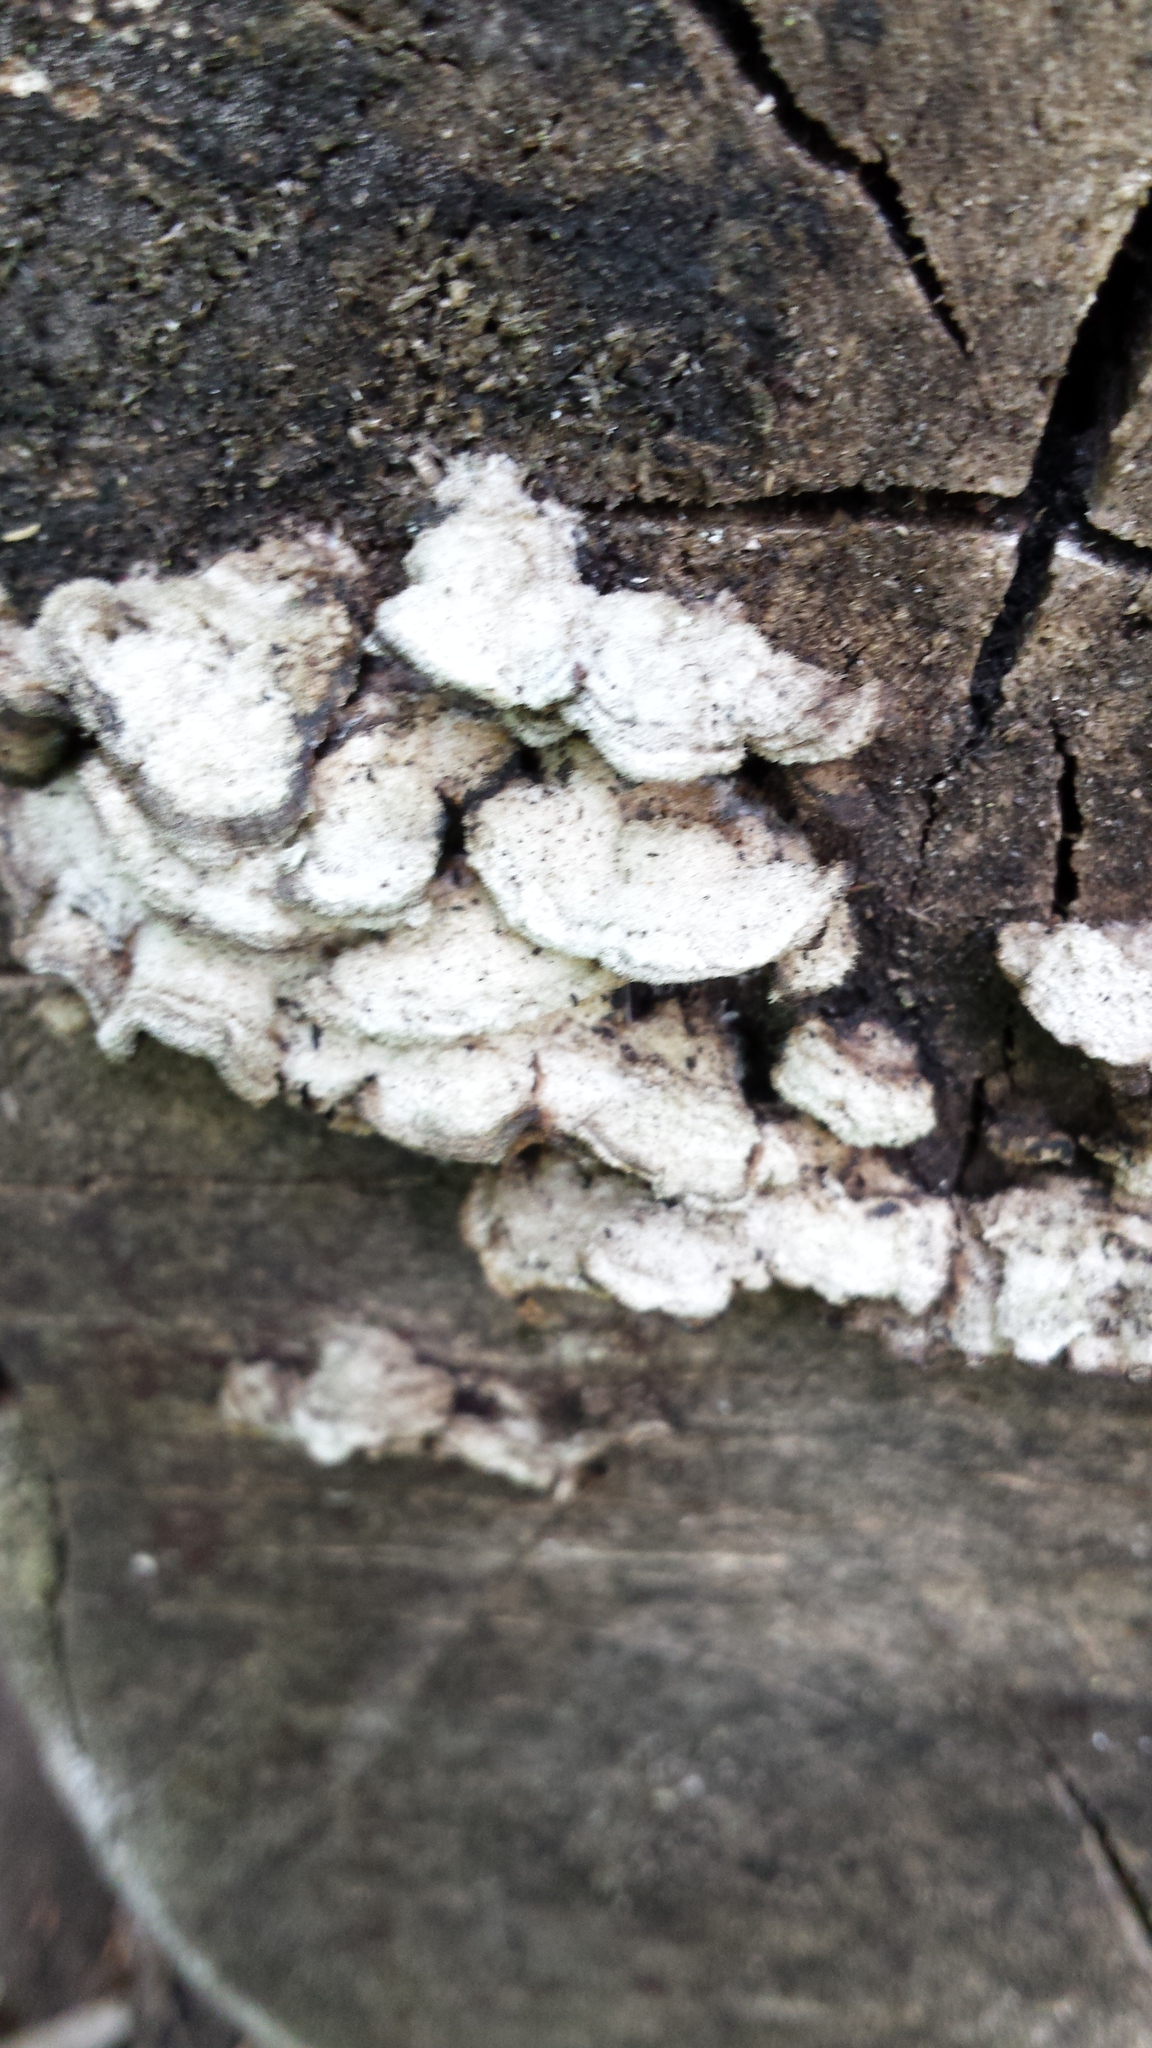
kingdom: Fungi
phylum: Basidiomycota
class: Agaricomycetes
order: Polyporales
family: Polyporaceae
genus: Trametes
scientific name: Trametes hirsuta
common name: Hairy bracket
